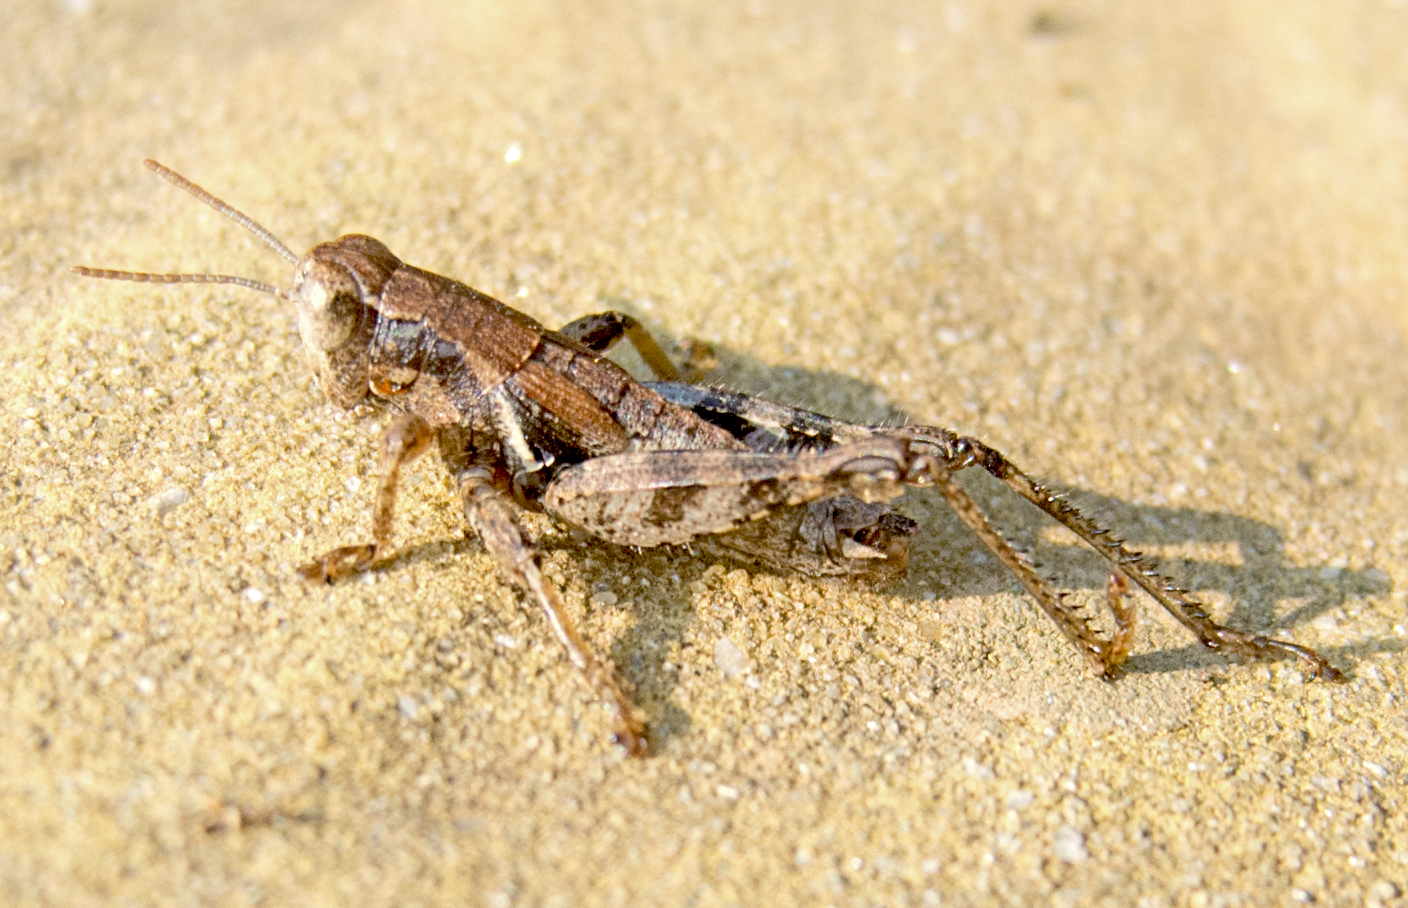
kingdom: Animalia
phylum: Arthropoda
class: Insecta
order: Orthoptera
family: Acrididae
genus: Pezotettix
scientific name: Pezotettix giornae
